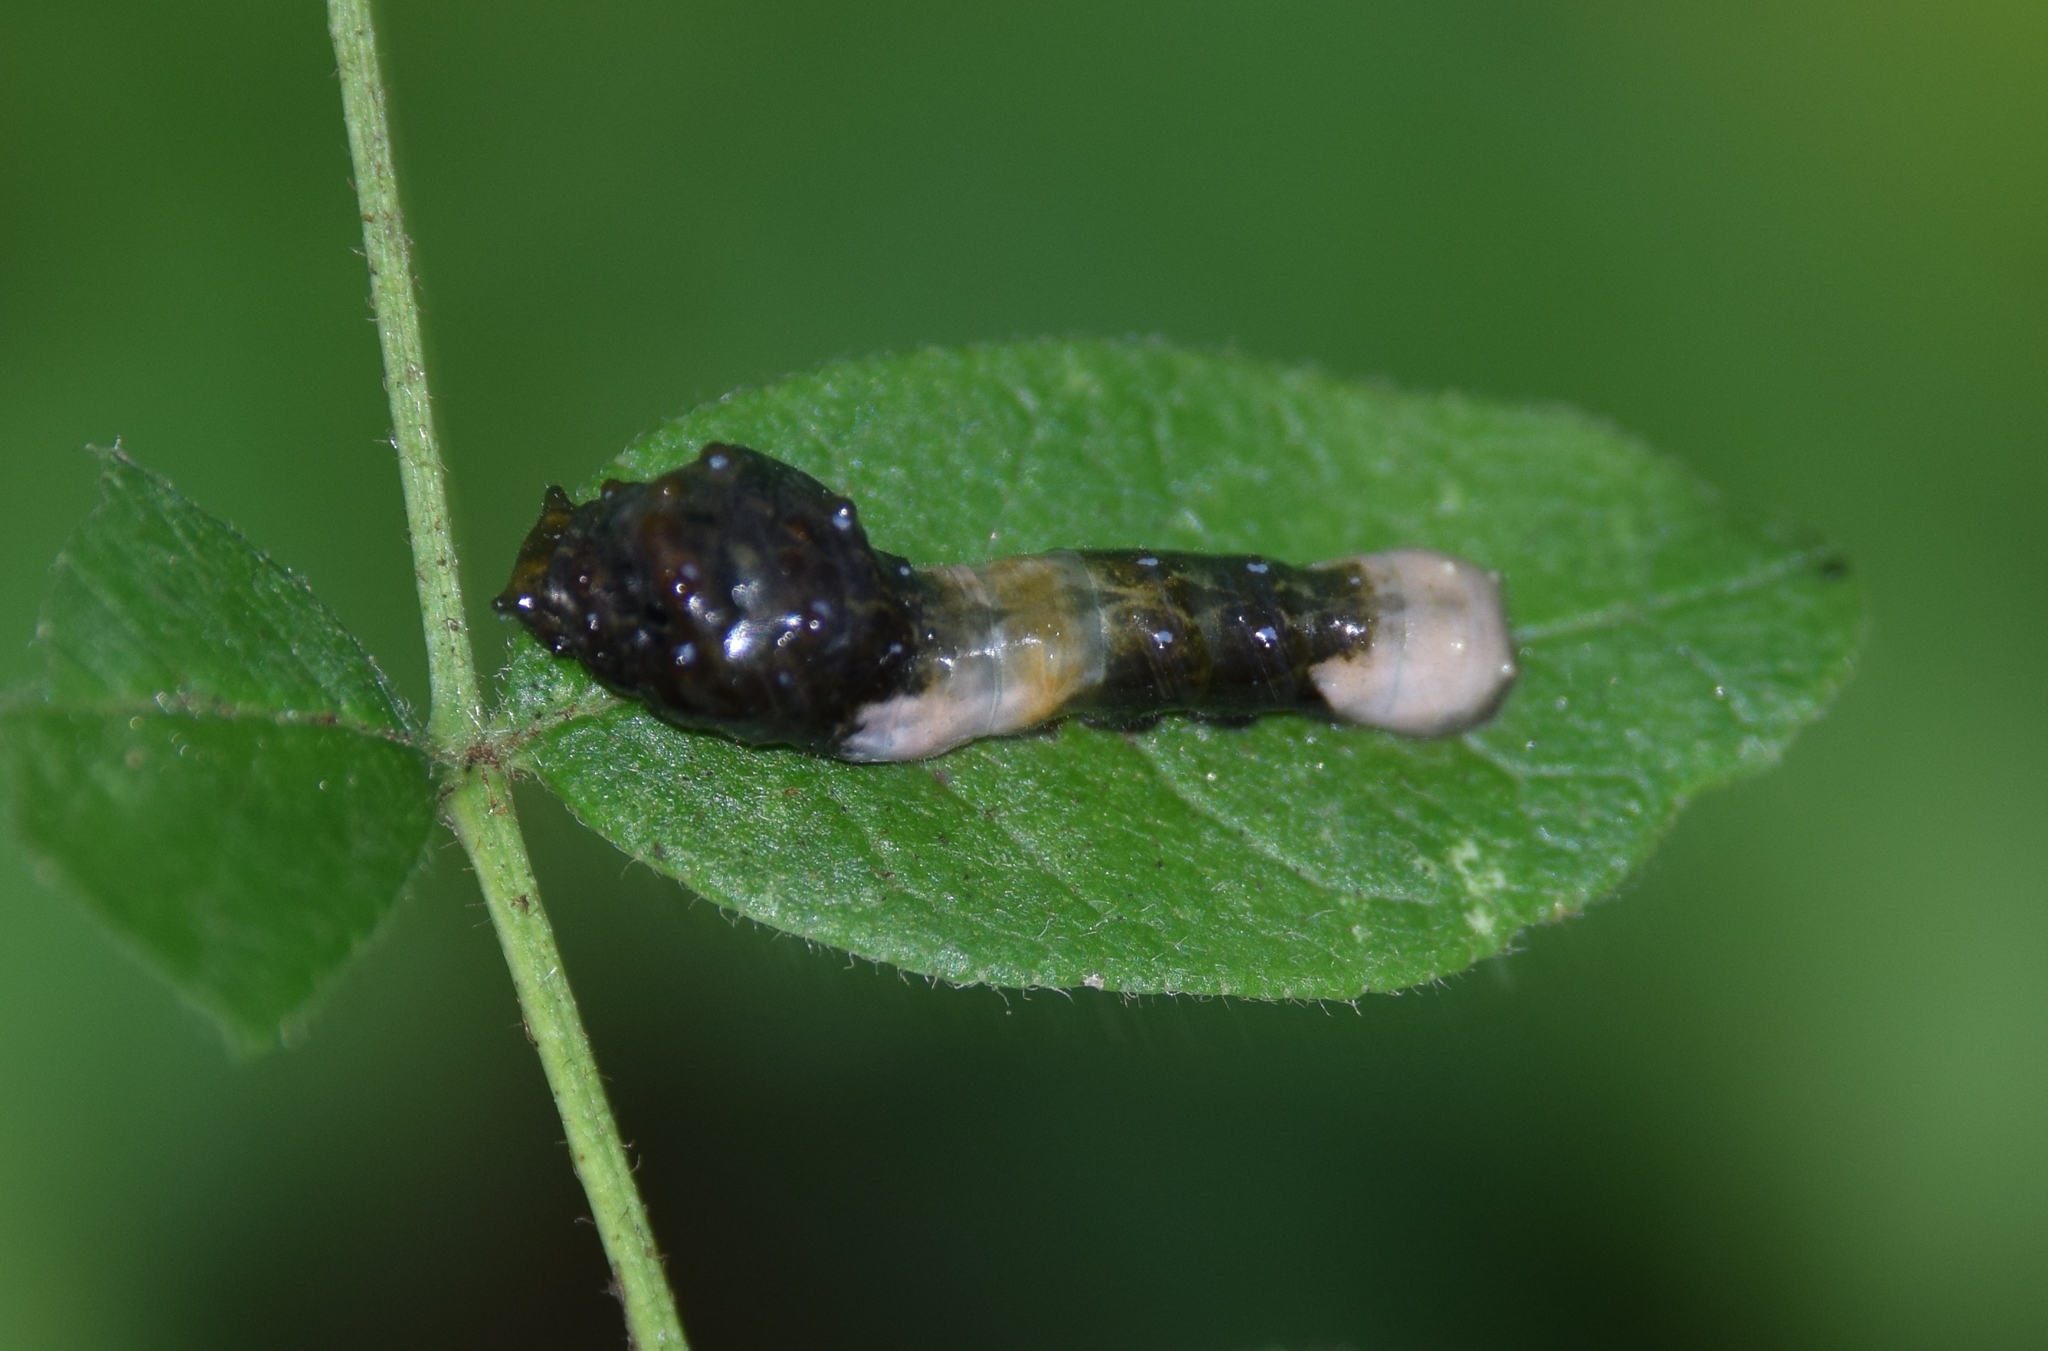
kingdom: Animalia
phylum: Arthropoda
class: Insecta
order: Lepidoptera
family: Papilionidae
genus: Papilio
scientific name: Papilio cresphontes
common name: Giant swallowtail
